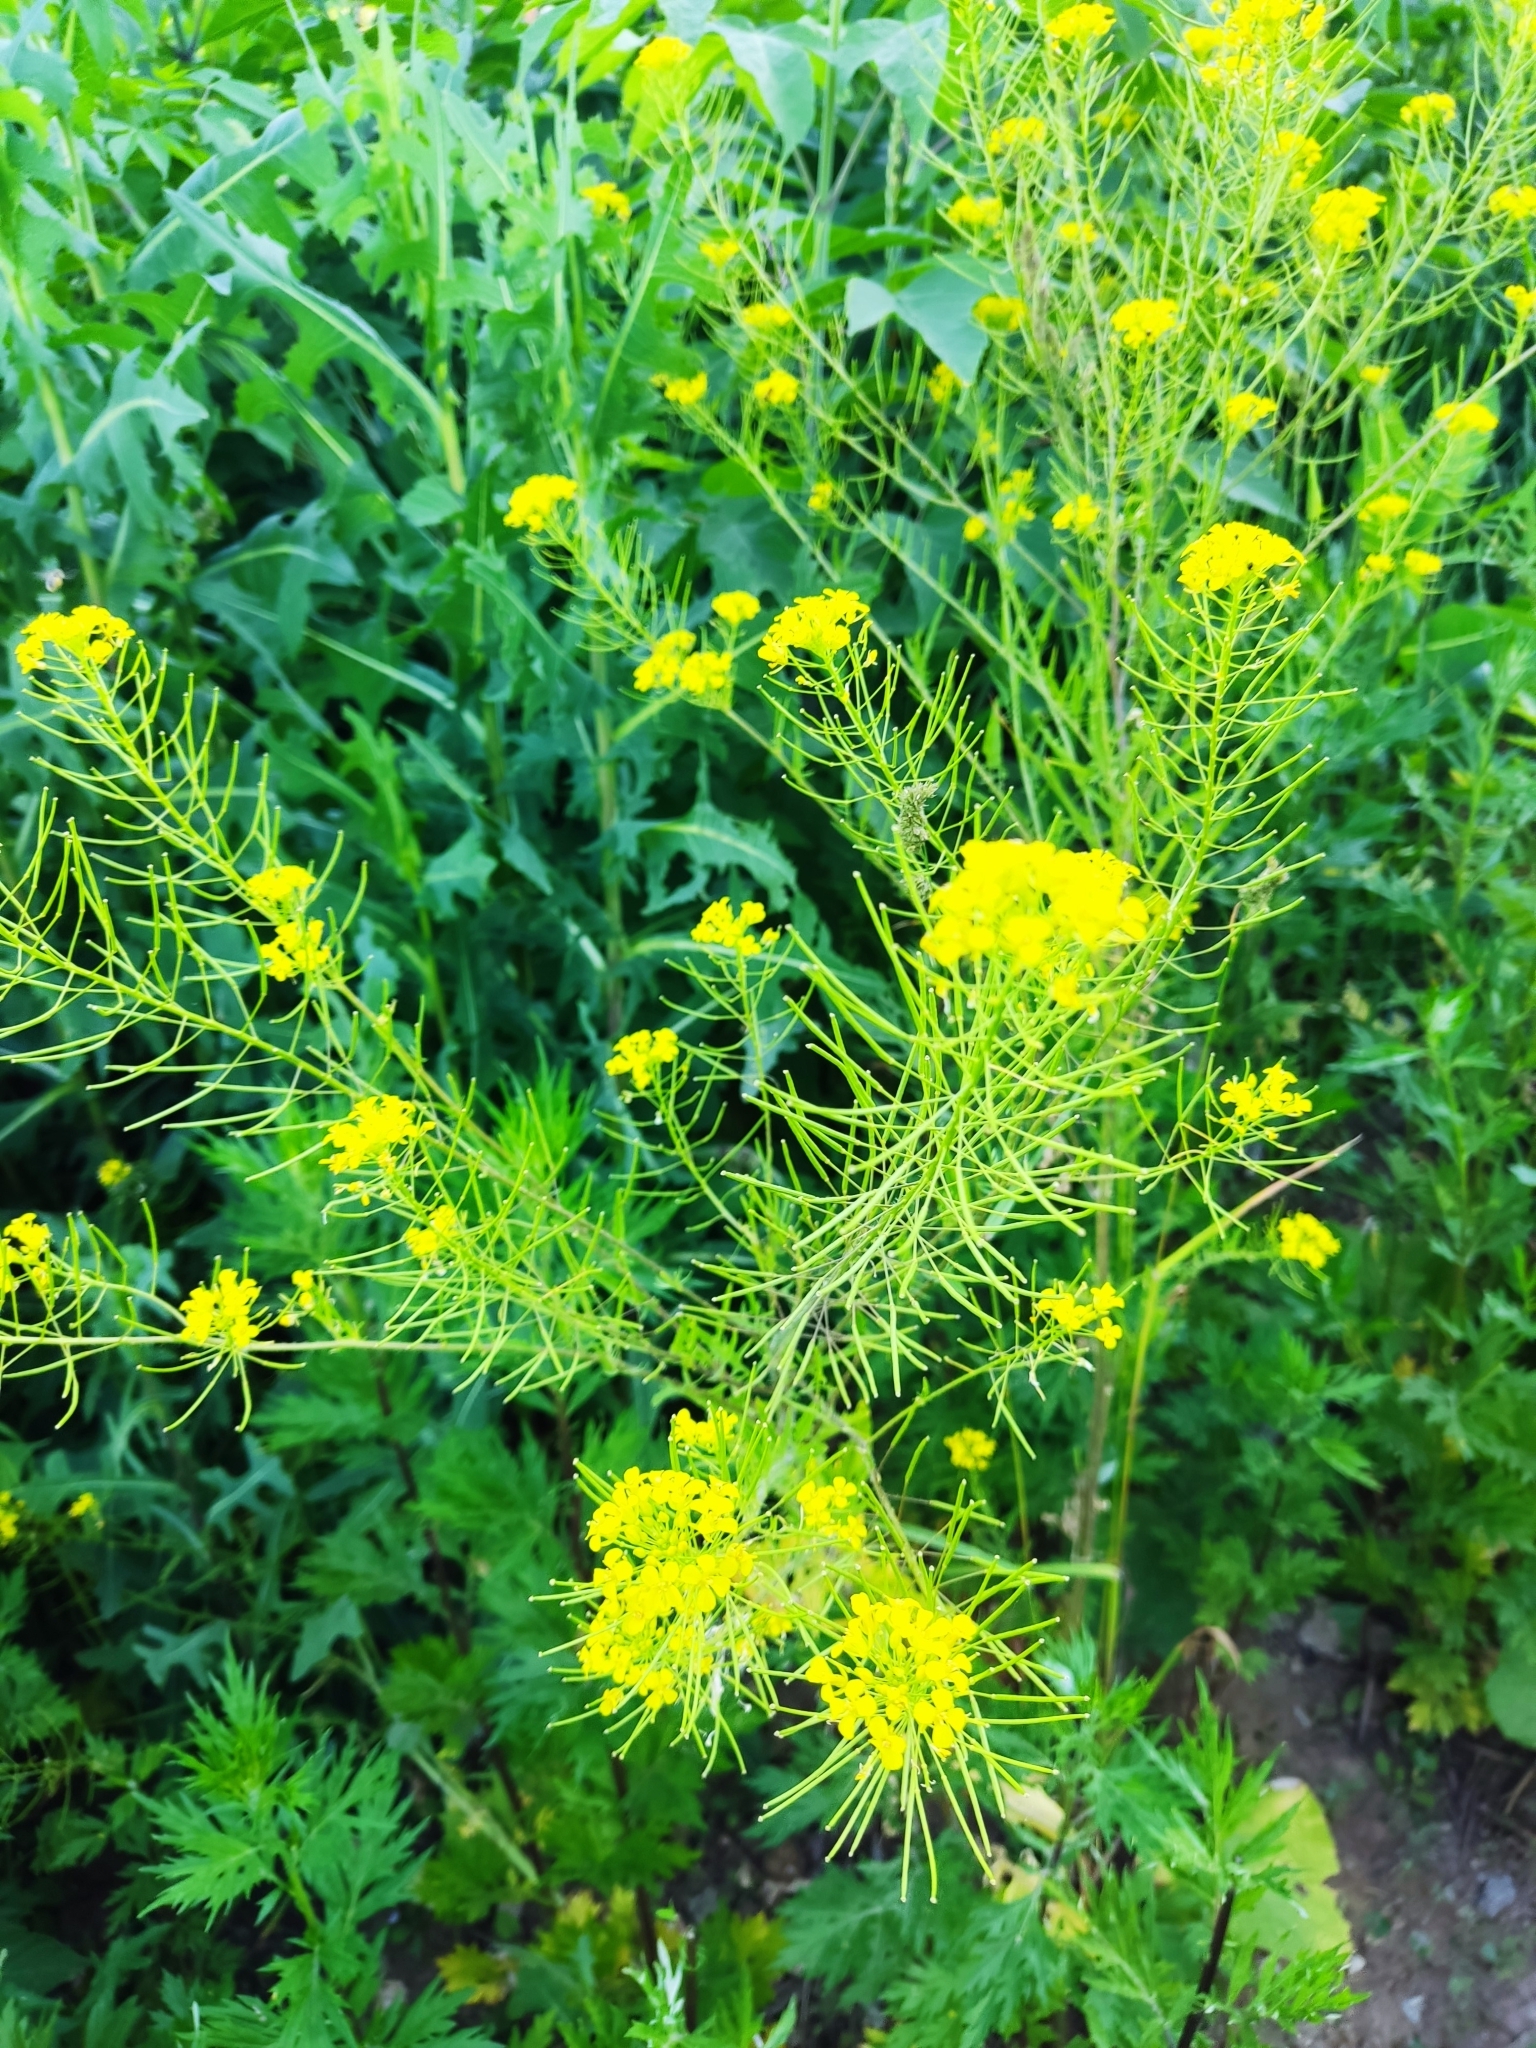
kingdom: Plantae
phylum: Tracheophyta
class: Magnoliopsida
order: Brassicales
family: Brassicaceae
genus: Sisymbrium
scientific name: Sisymbrium loeselii
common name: False london-rocket
